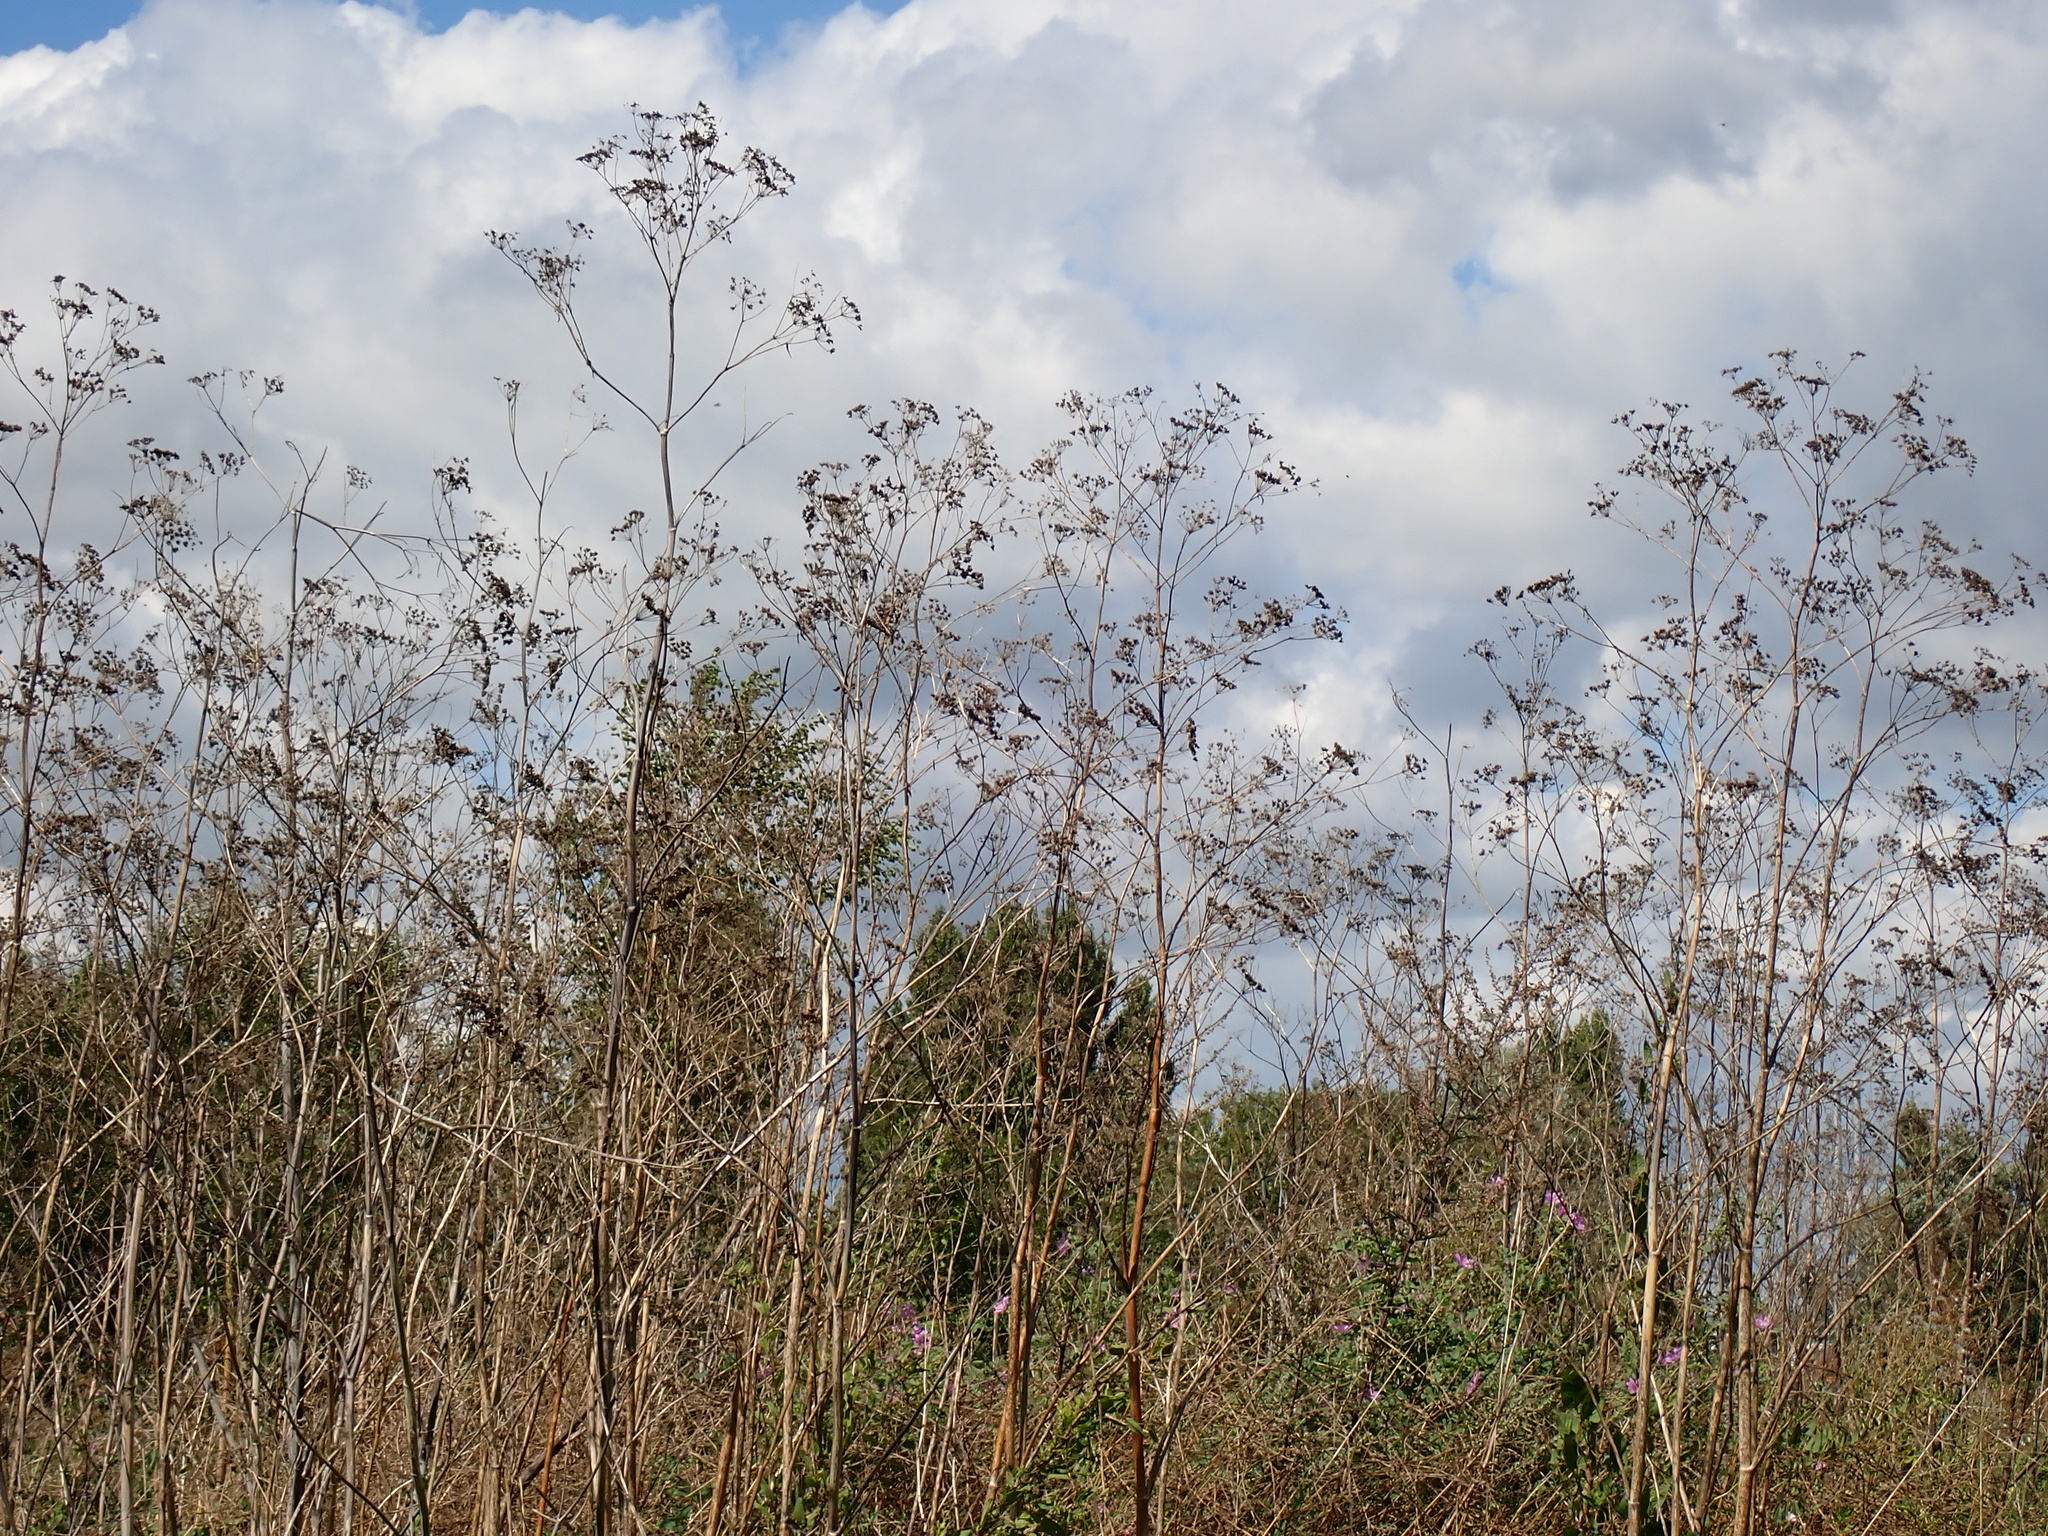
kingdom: Plantae
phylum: Tracheophyta
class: Magnoliopsida
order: Apiales
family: Apiaceae
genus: Conium
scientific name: Conium maculatum
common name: Hemlock
